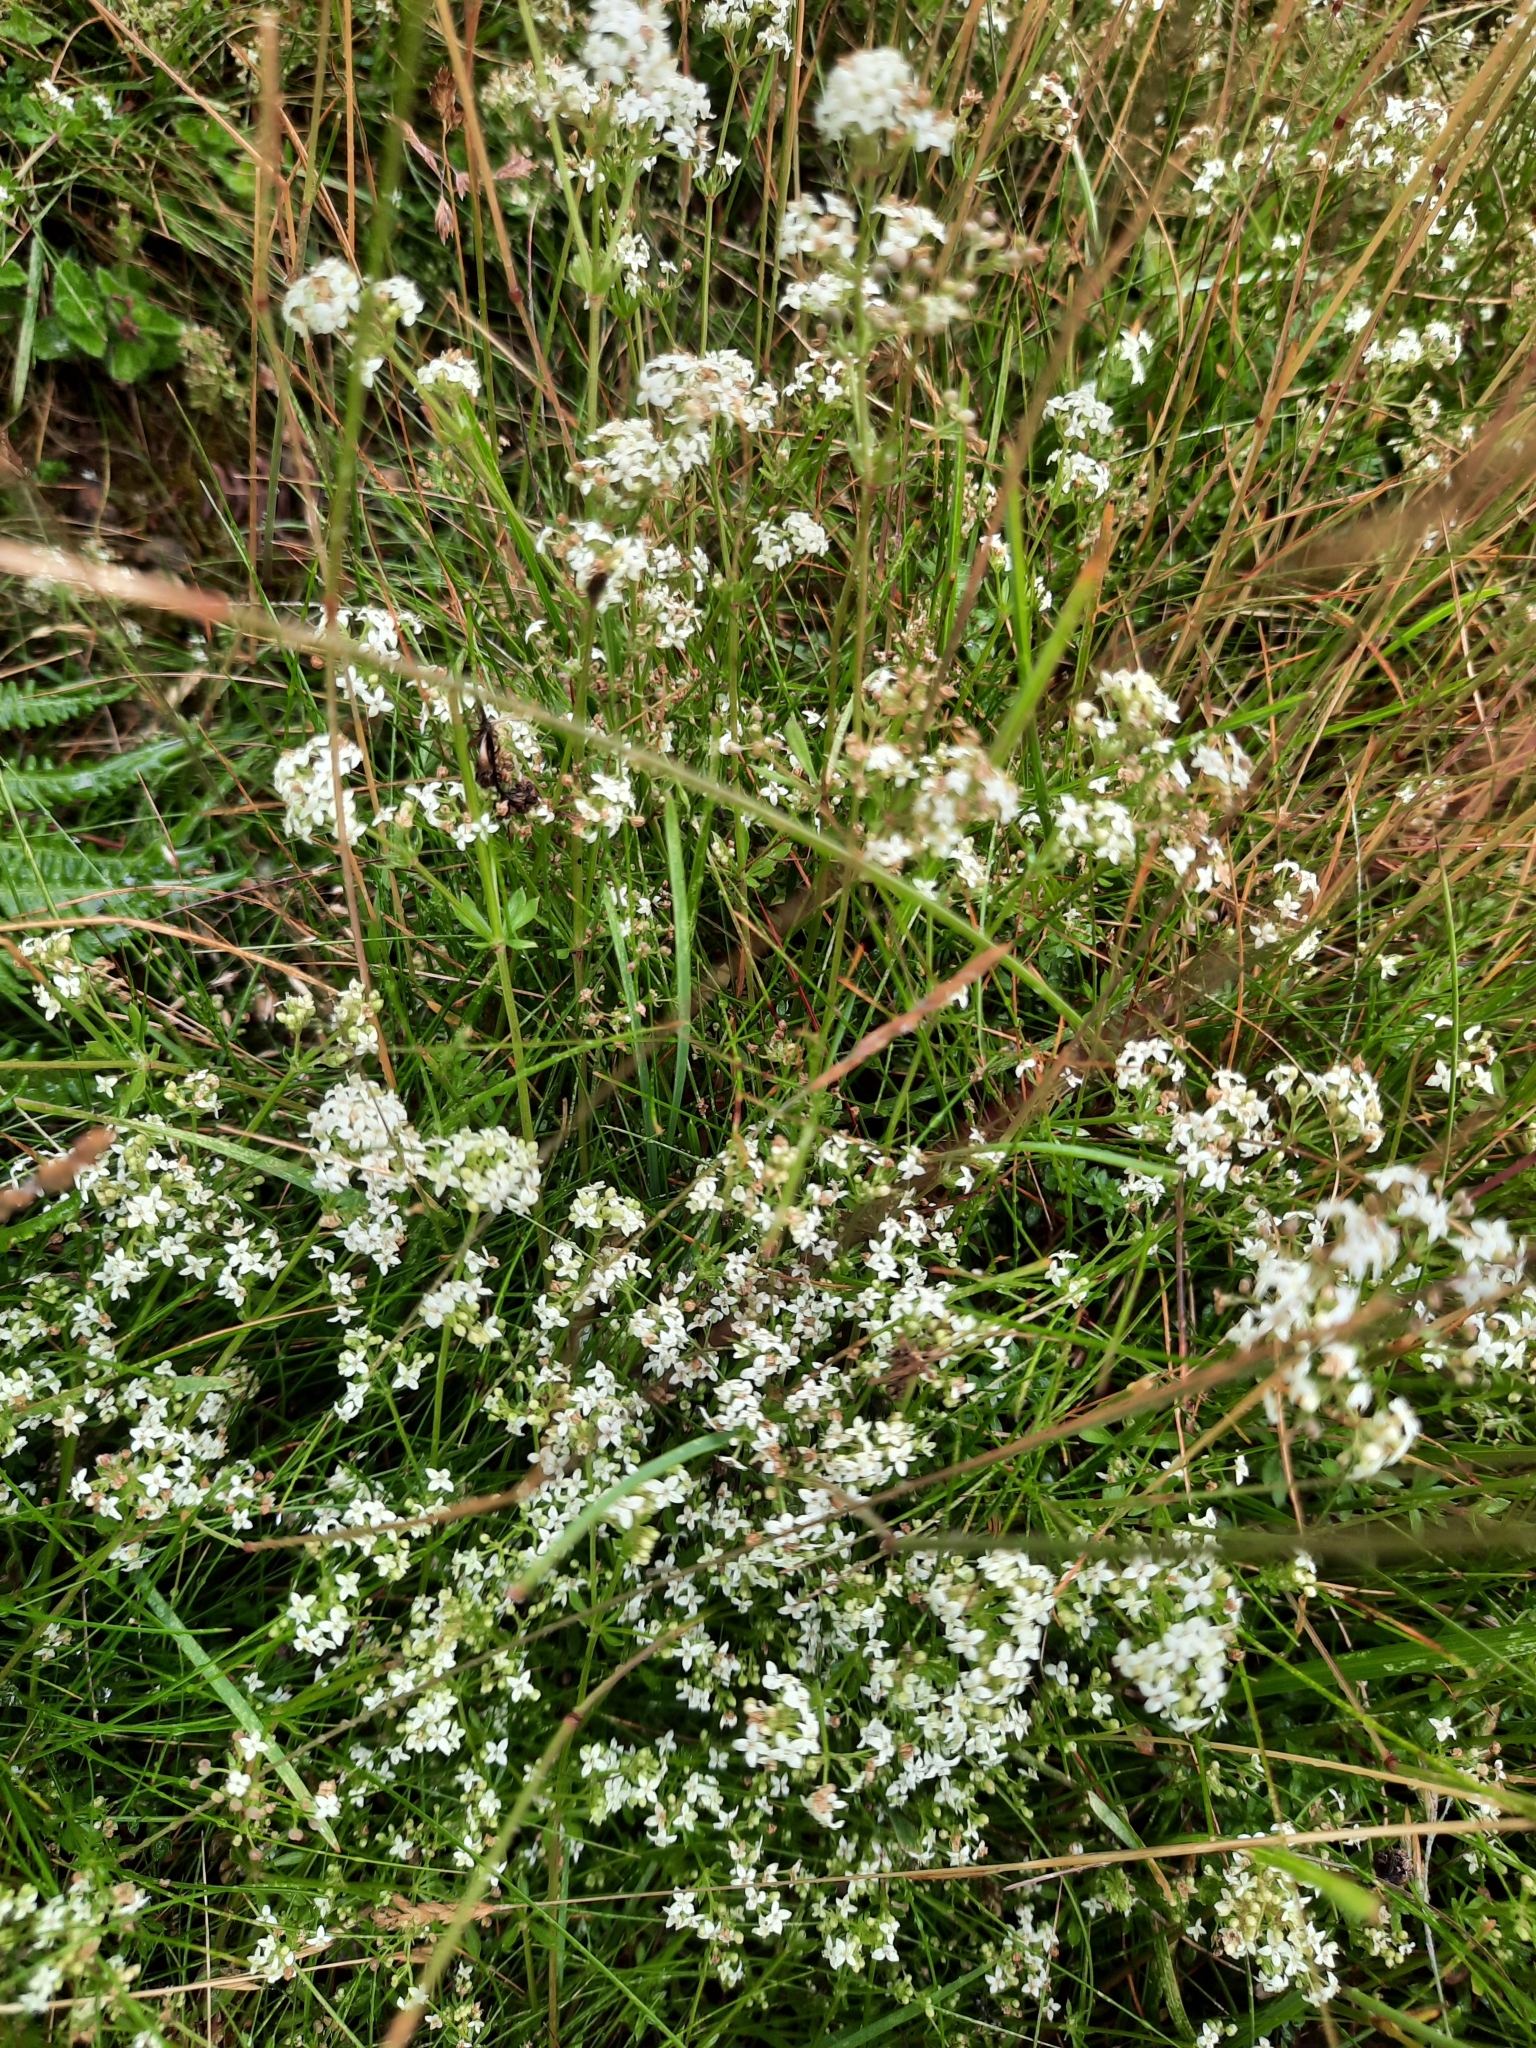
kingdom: Plantae
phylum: Tracheophyta
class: Magnoliopsida
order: Gentianales
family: Rubiaceae
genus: Galium
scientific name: Galium saxatile
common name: Heath bedstraw
